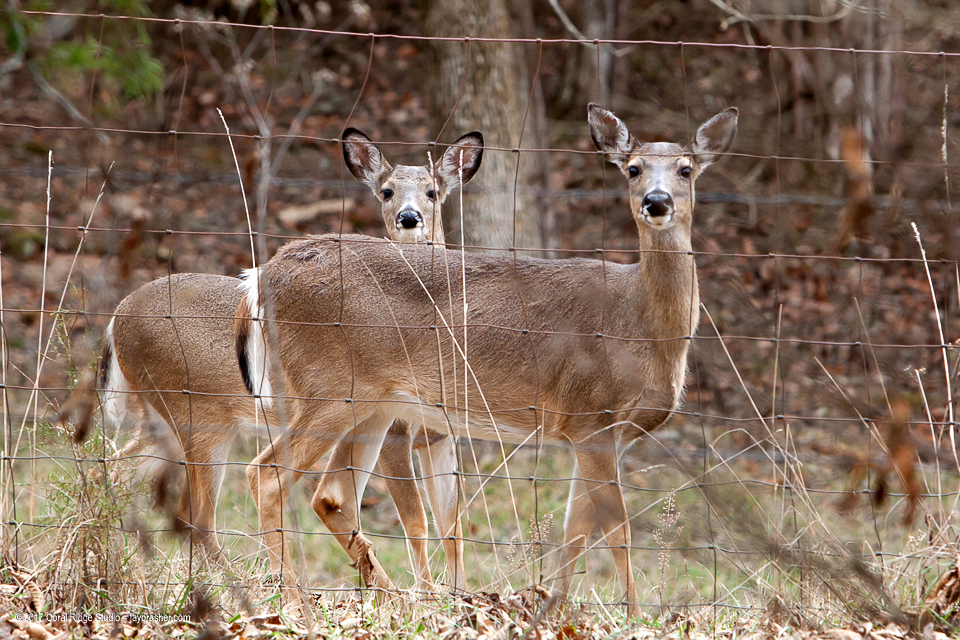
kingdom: Animalia
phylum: Chordata
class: Mammalia
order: Artiodactyla
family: Cervidae
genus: Odocoileus
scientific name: Odocoileus virginianus
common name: White-tailed deer
